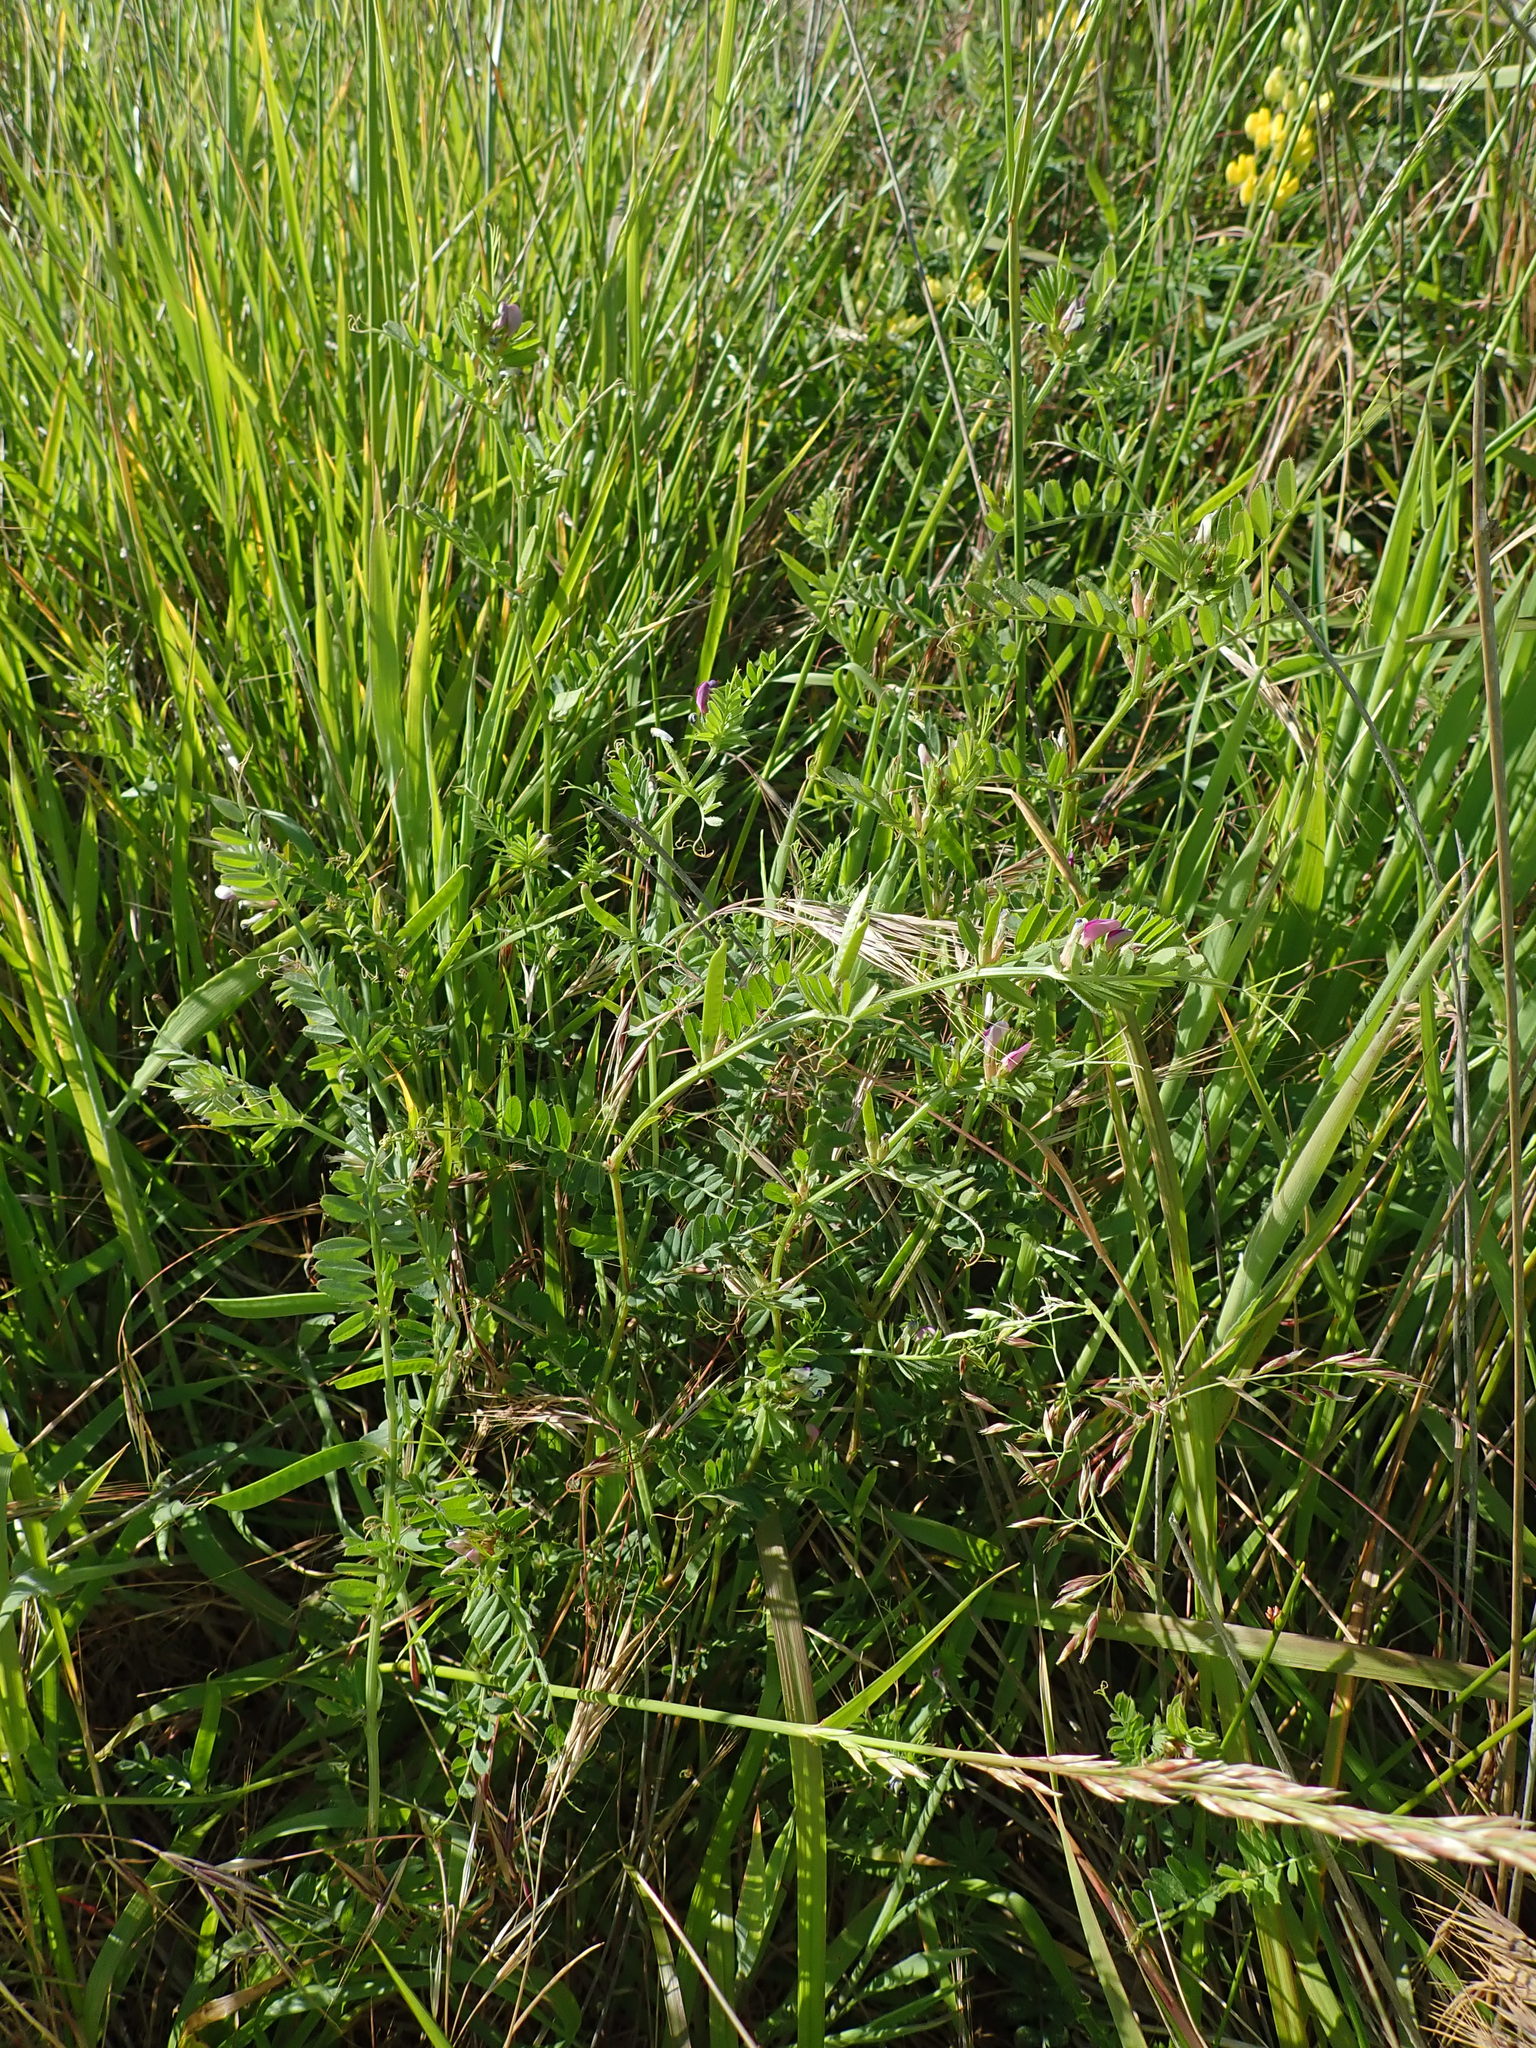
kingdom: Plantae
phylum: Tracheophyta
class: Magnoliopsida
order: Fabales
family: Fabaceae
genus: Vicia
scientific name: Vicia sativa
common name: Garden vetch
